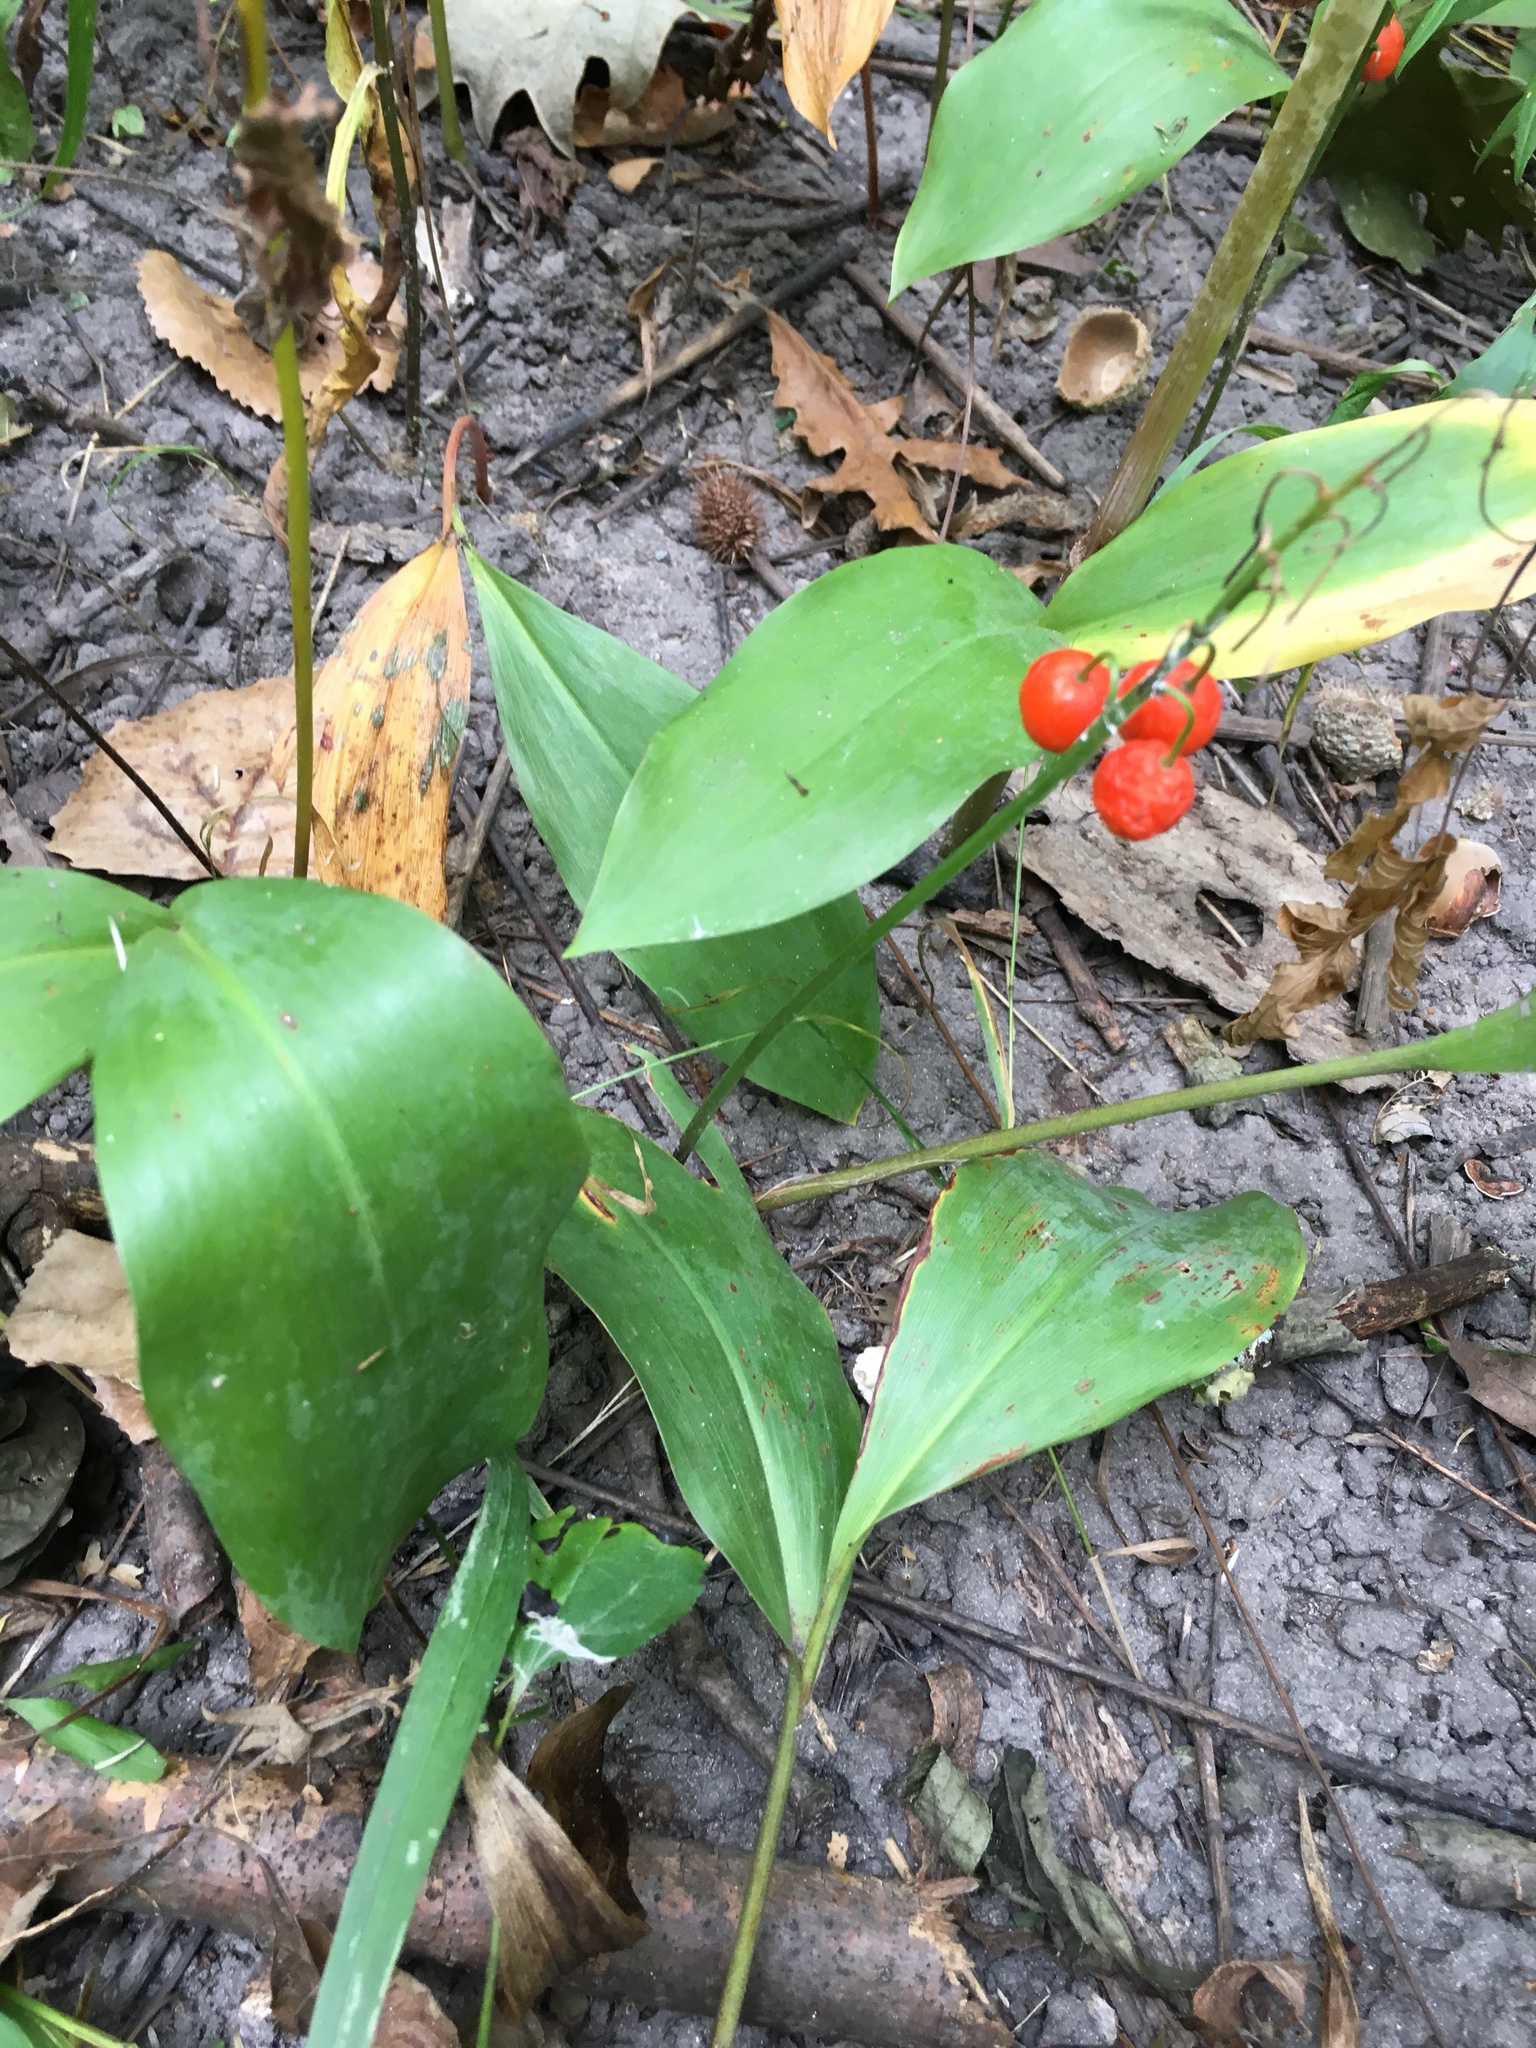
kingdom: Plantae
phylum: Tracheophyta
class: Liliopsida
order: Asparagales
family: Asparagaceae
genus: Convallaria
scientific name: Convallaria majalis
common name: Lily-of-the-valley
